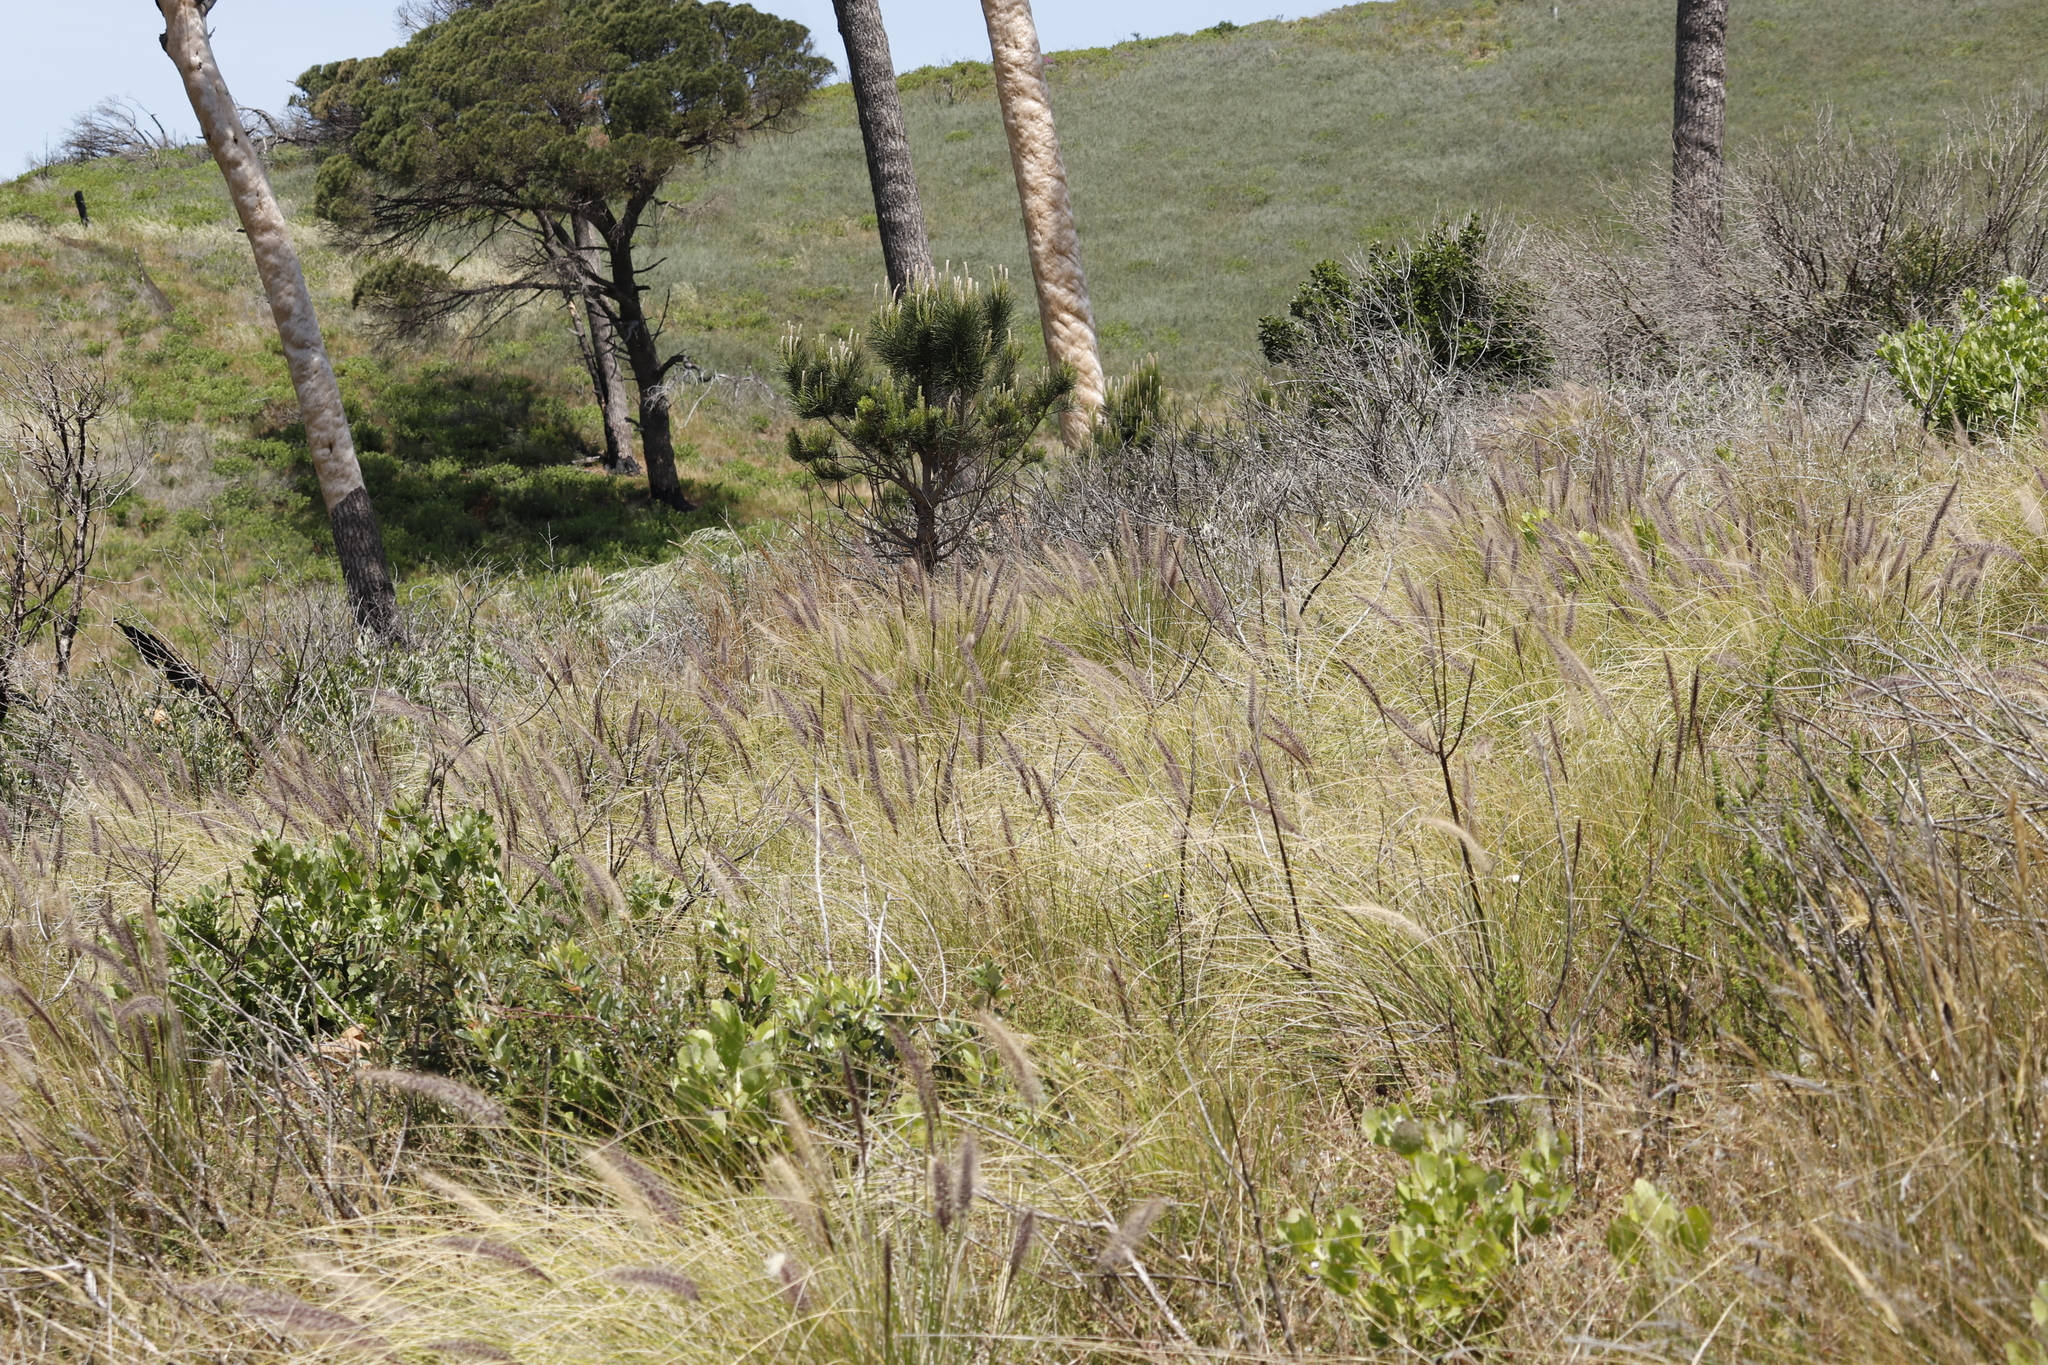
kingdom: Plantae
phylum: Tracheophyta
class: Liliopsida
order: Poales
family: Poaceae
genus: Cenchrus
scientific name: Cenchrus setaceus
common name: Crimson fountaingrass
